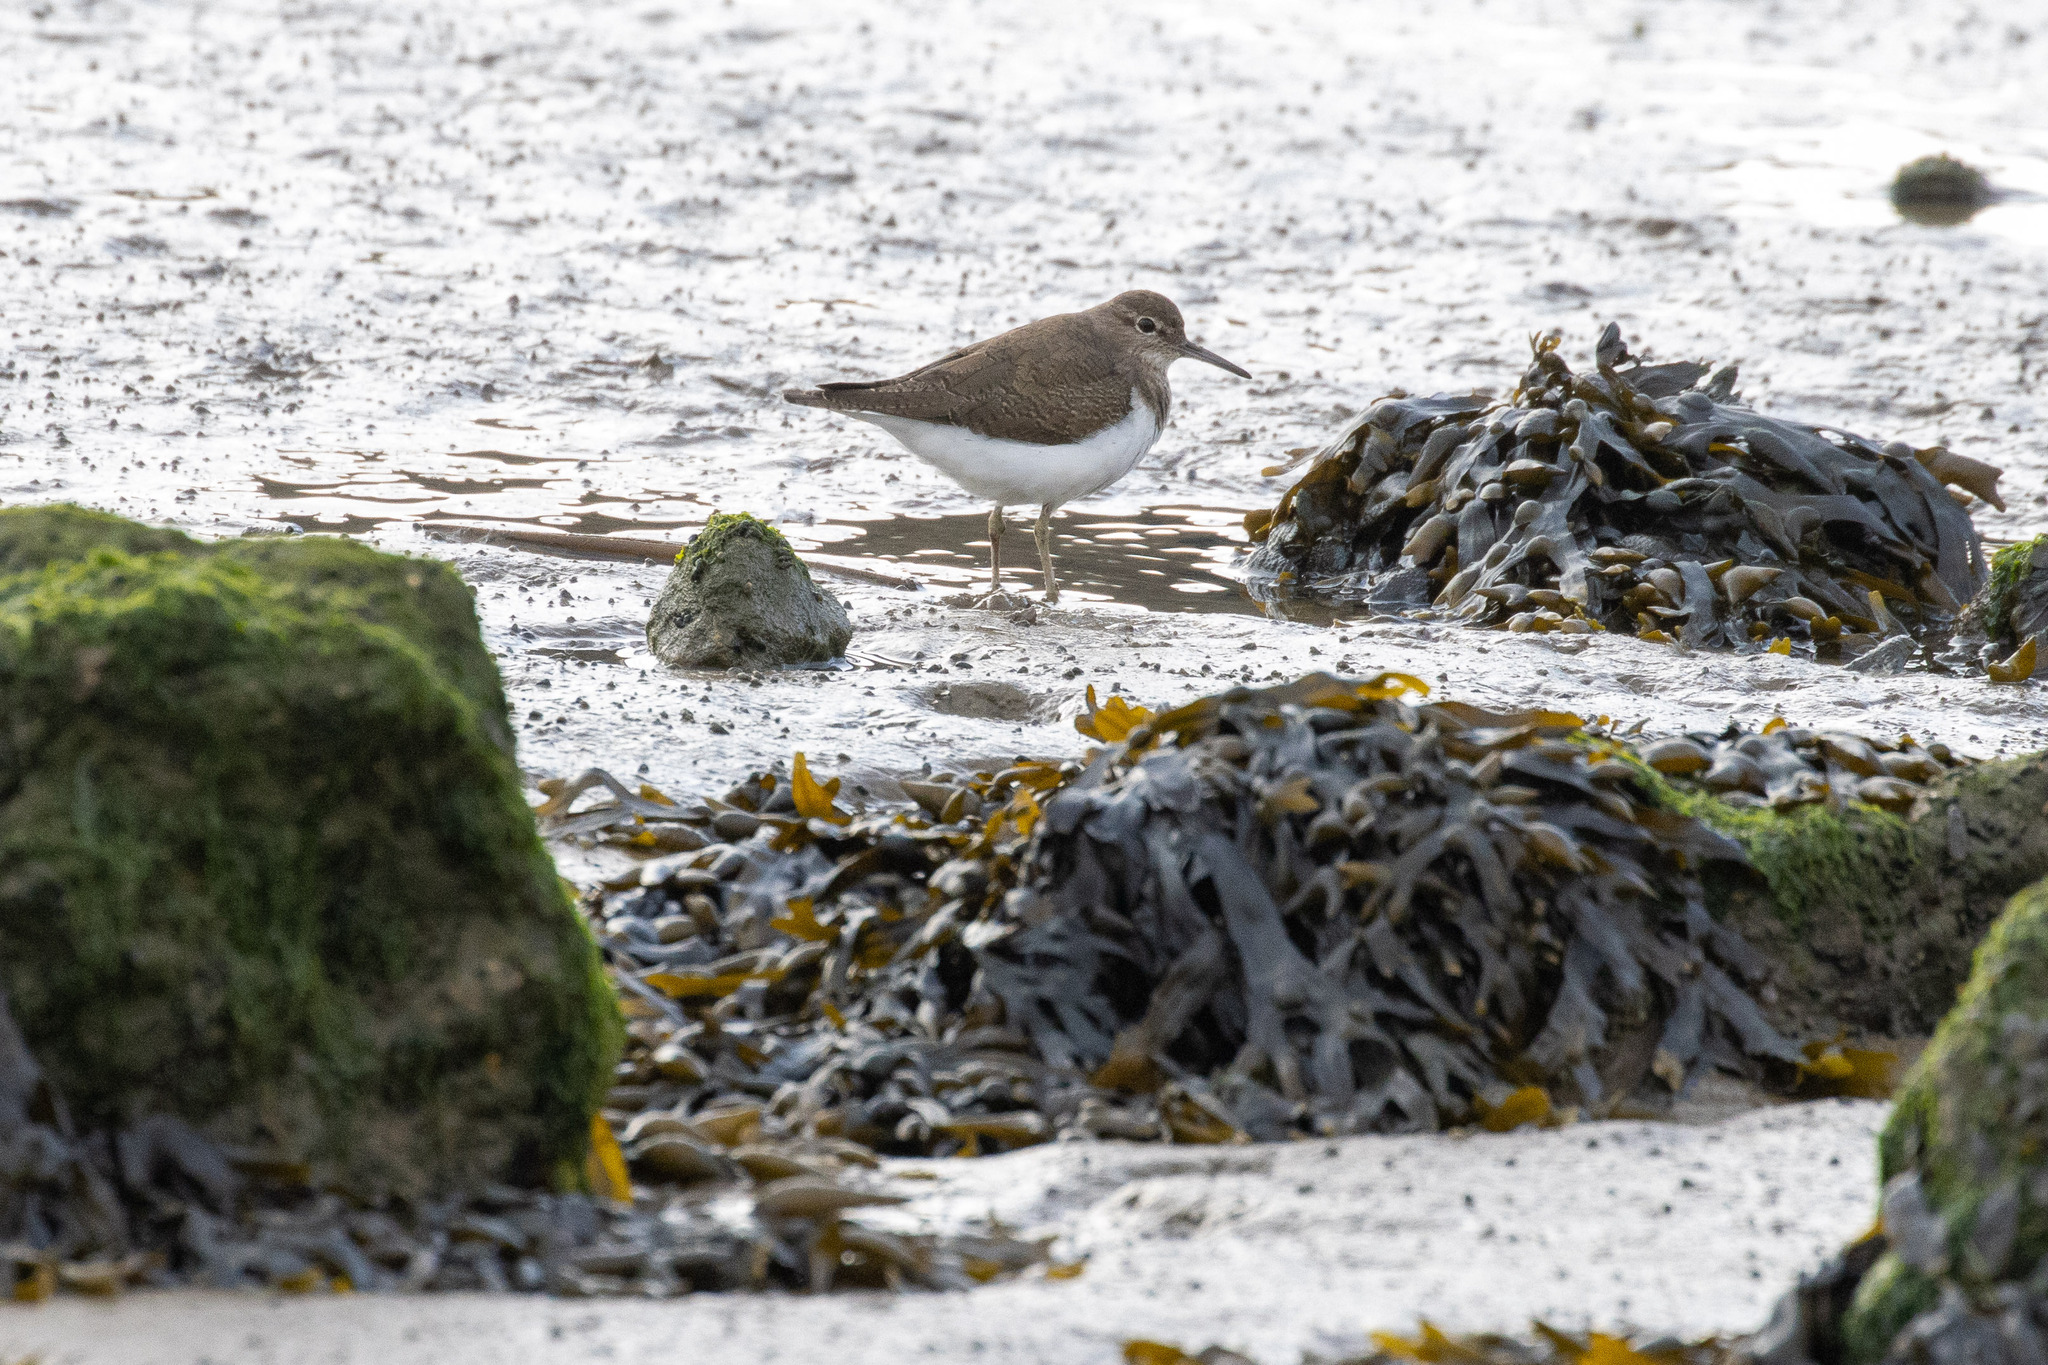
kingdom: Animalia
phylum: Chordata
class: Aves
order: Charadriiformes
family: Scolopacidae
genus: Actitis
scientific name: Actitis hypoleucos
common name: Common sandpiper
